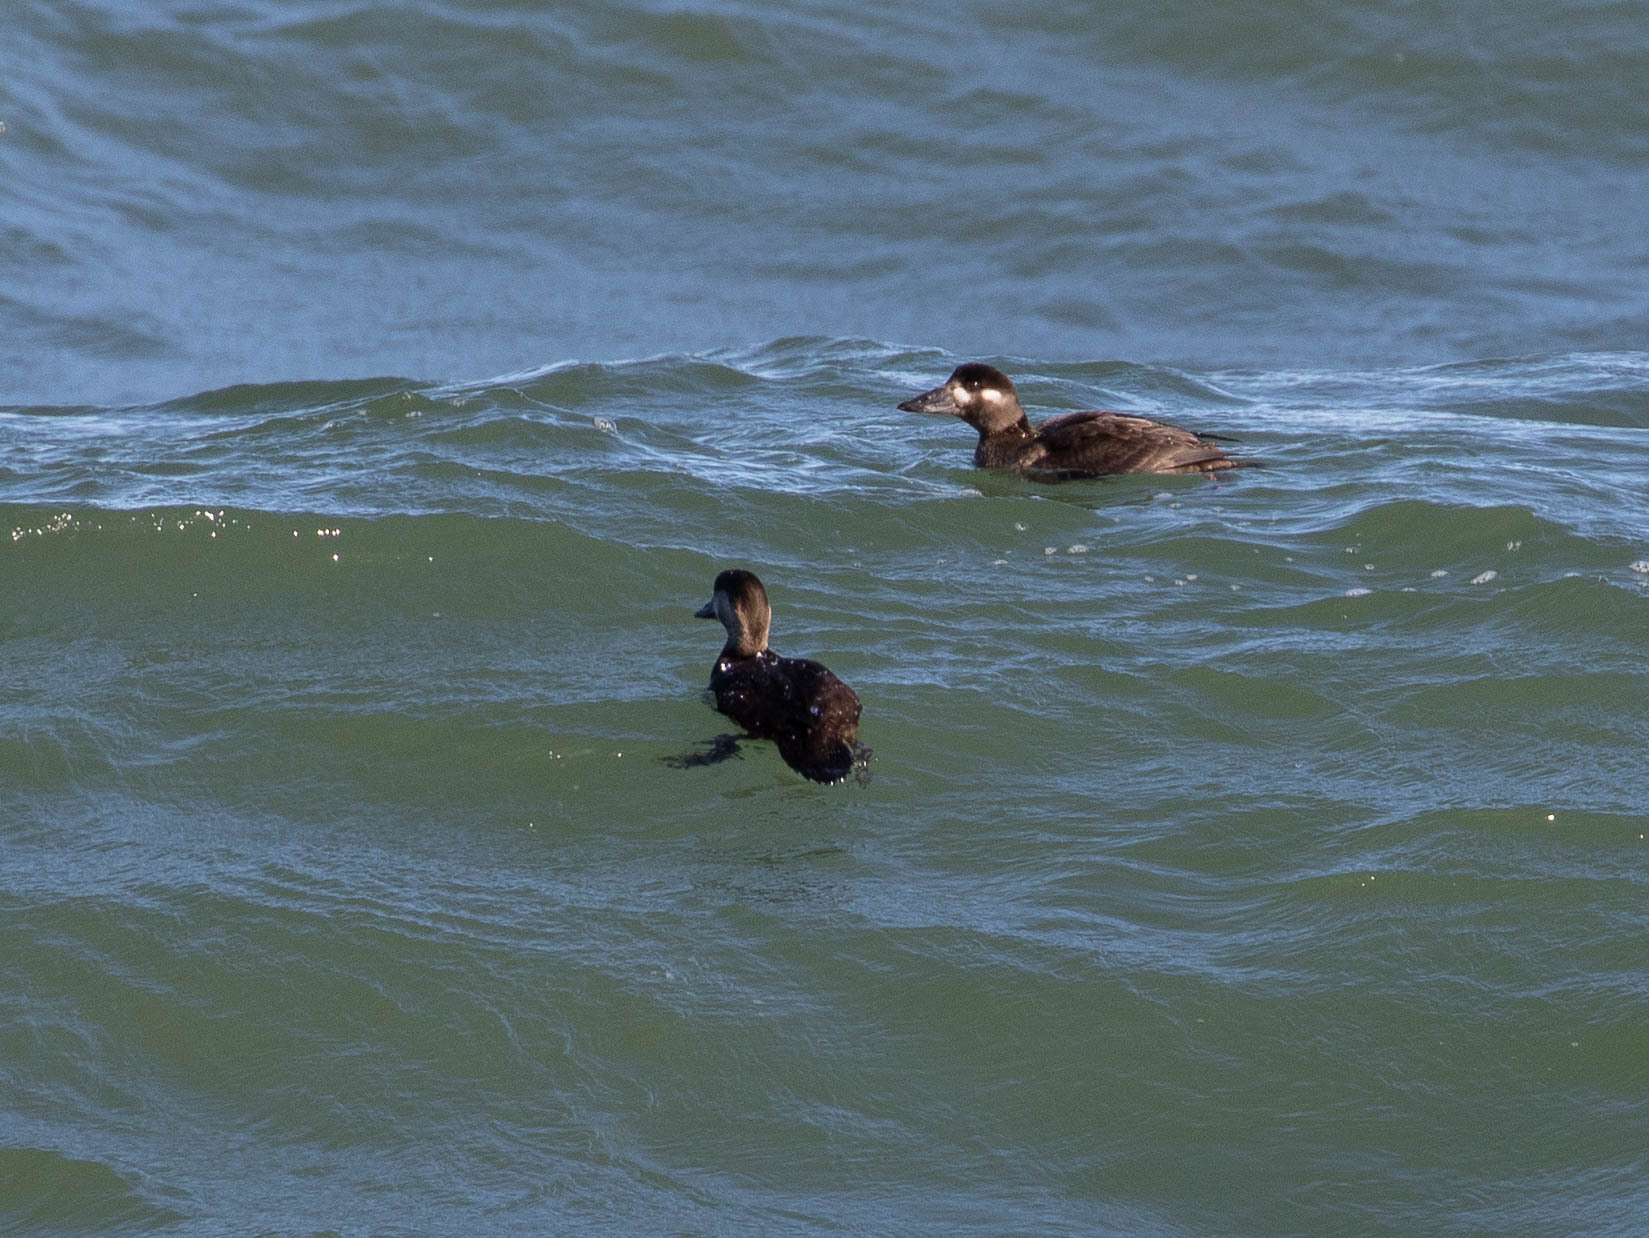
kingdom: Animalia
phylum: Chordata
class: Aves
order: Anseriformes
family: Anatidae
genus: Melanitta
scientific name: Melanitta perspicillata
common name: Surf scoter
